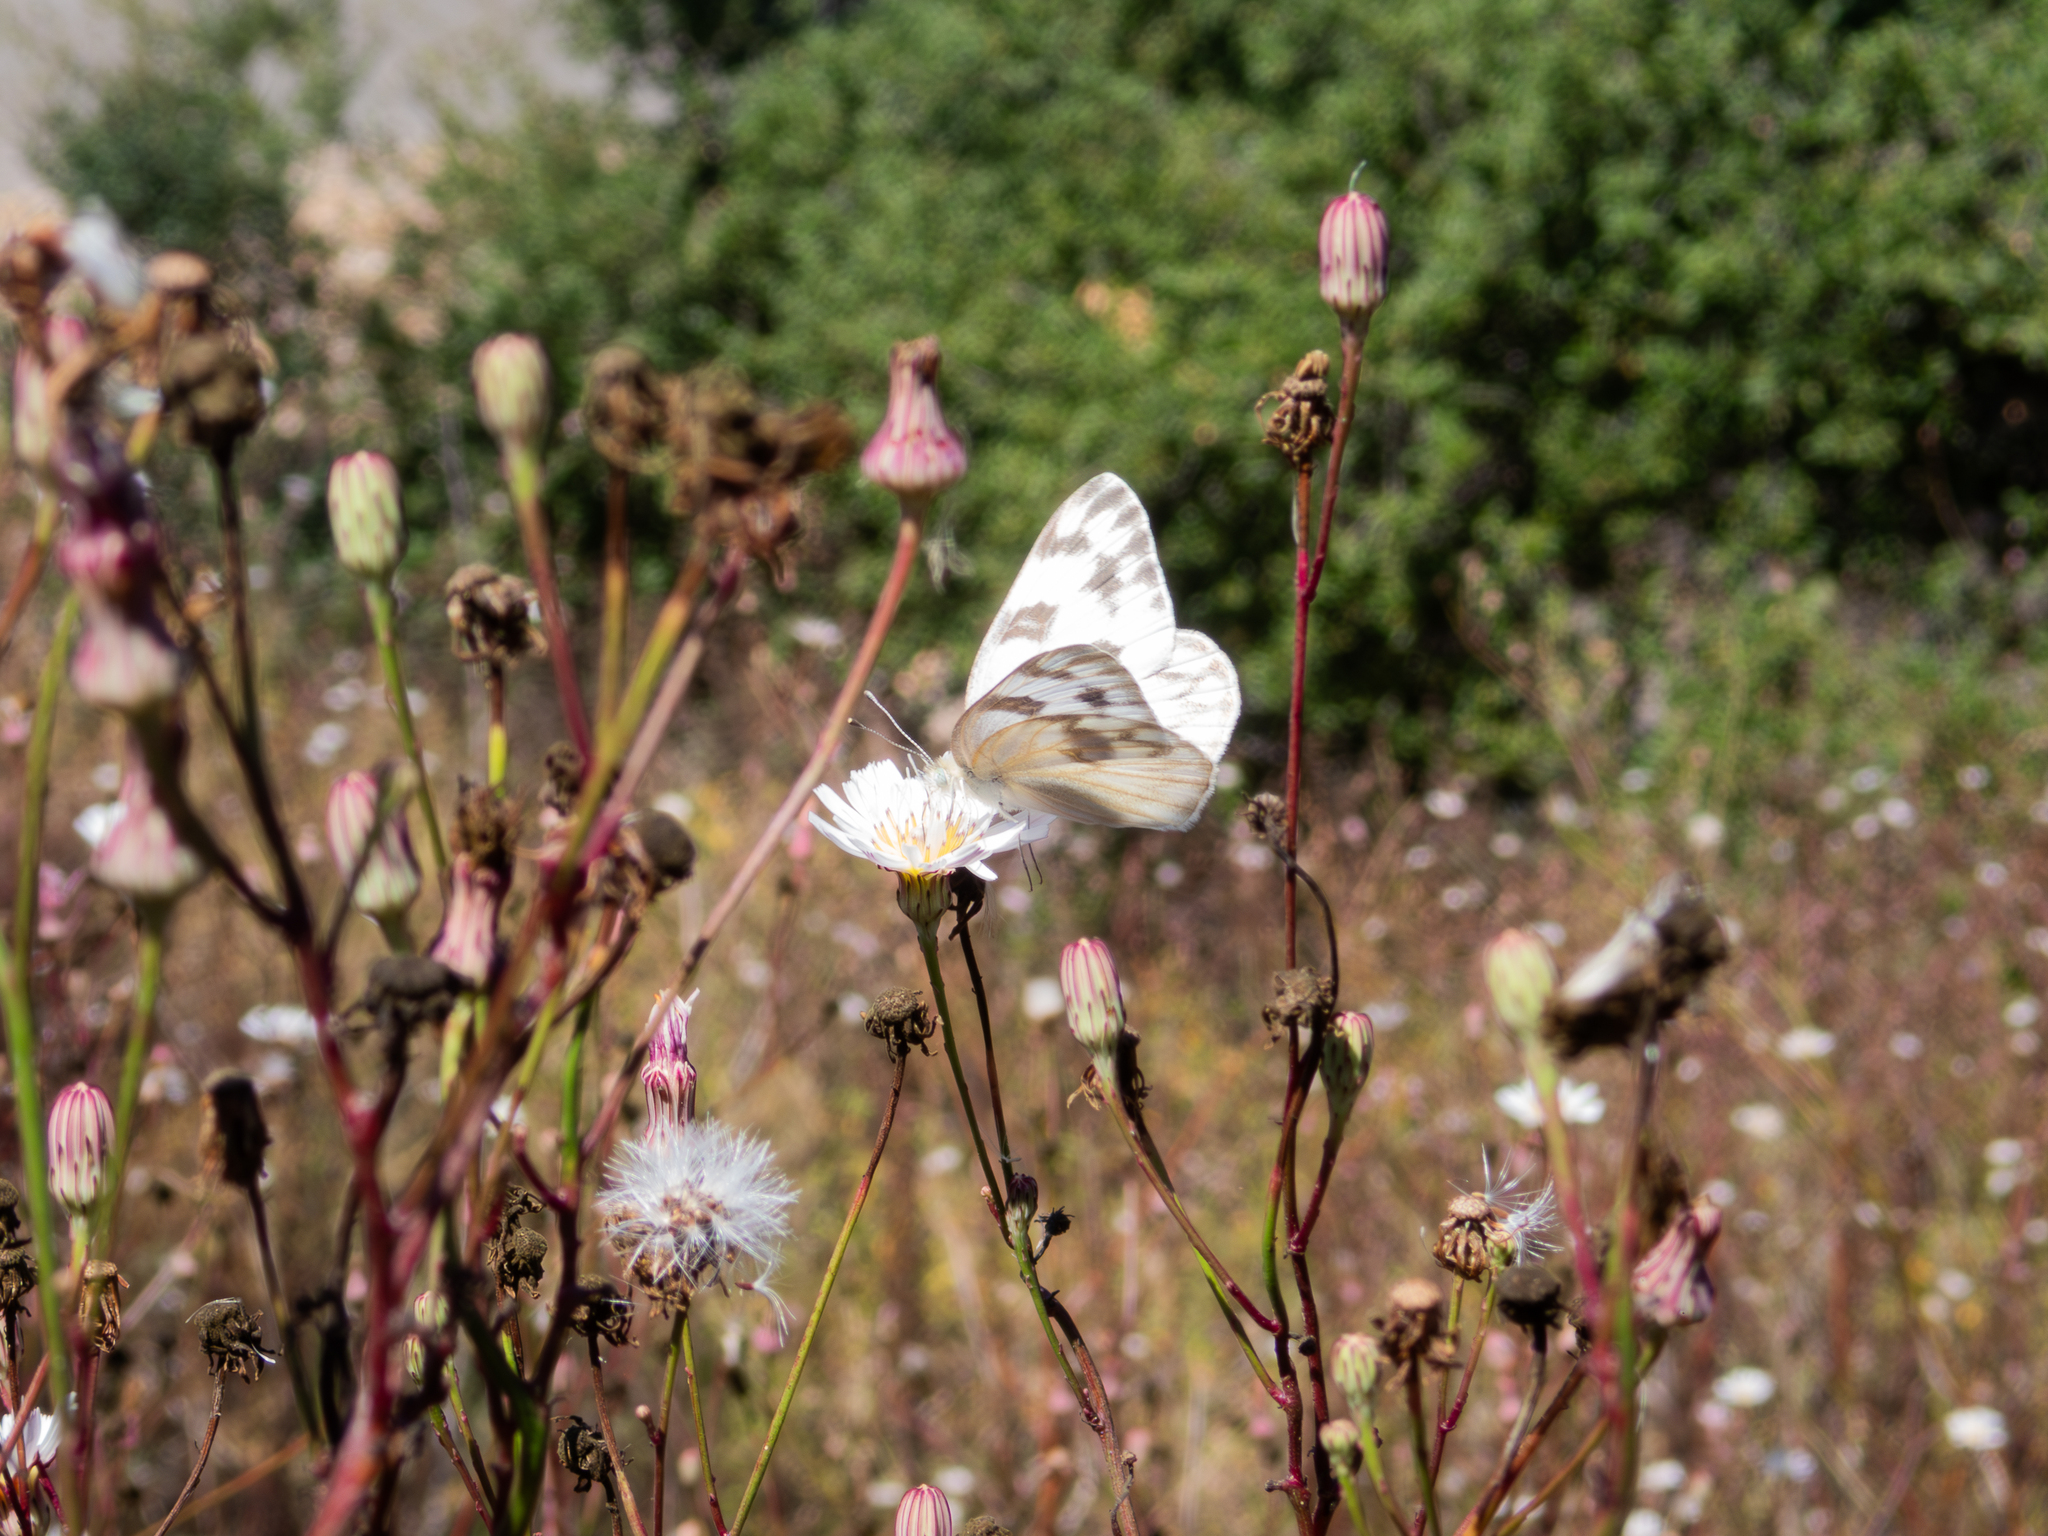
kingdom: Animalia
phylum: Arthropoda
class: Insecta
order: Lepidoptera
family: Pieridae
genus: Pontia
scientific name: Pontia protodice
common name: Checkered white
